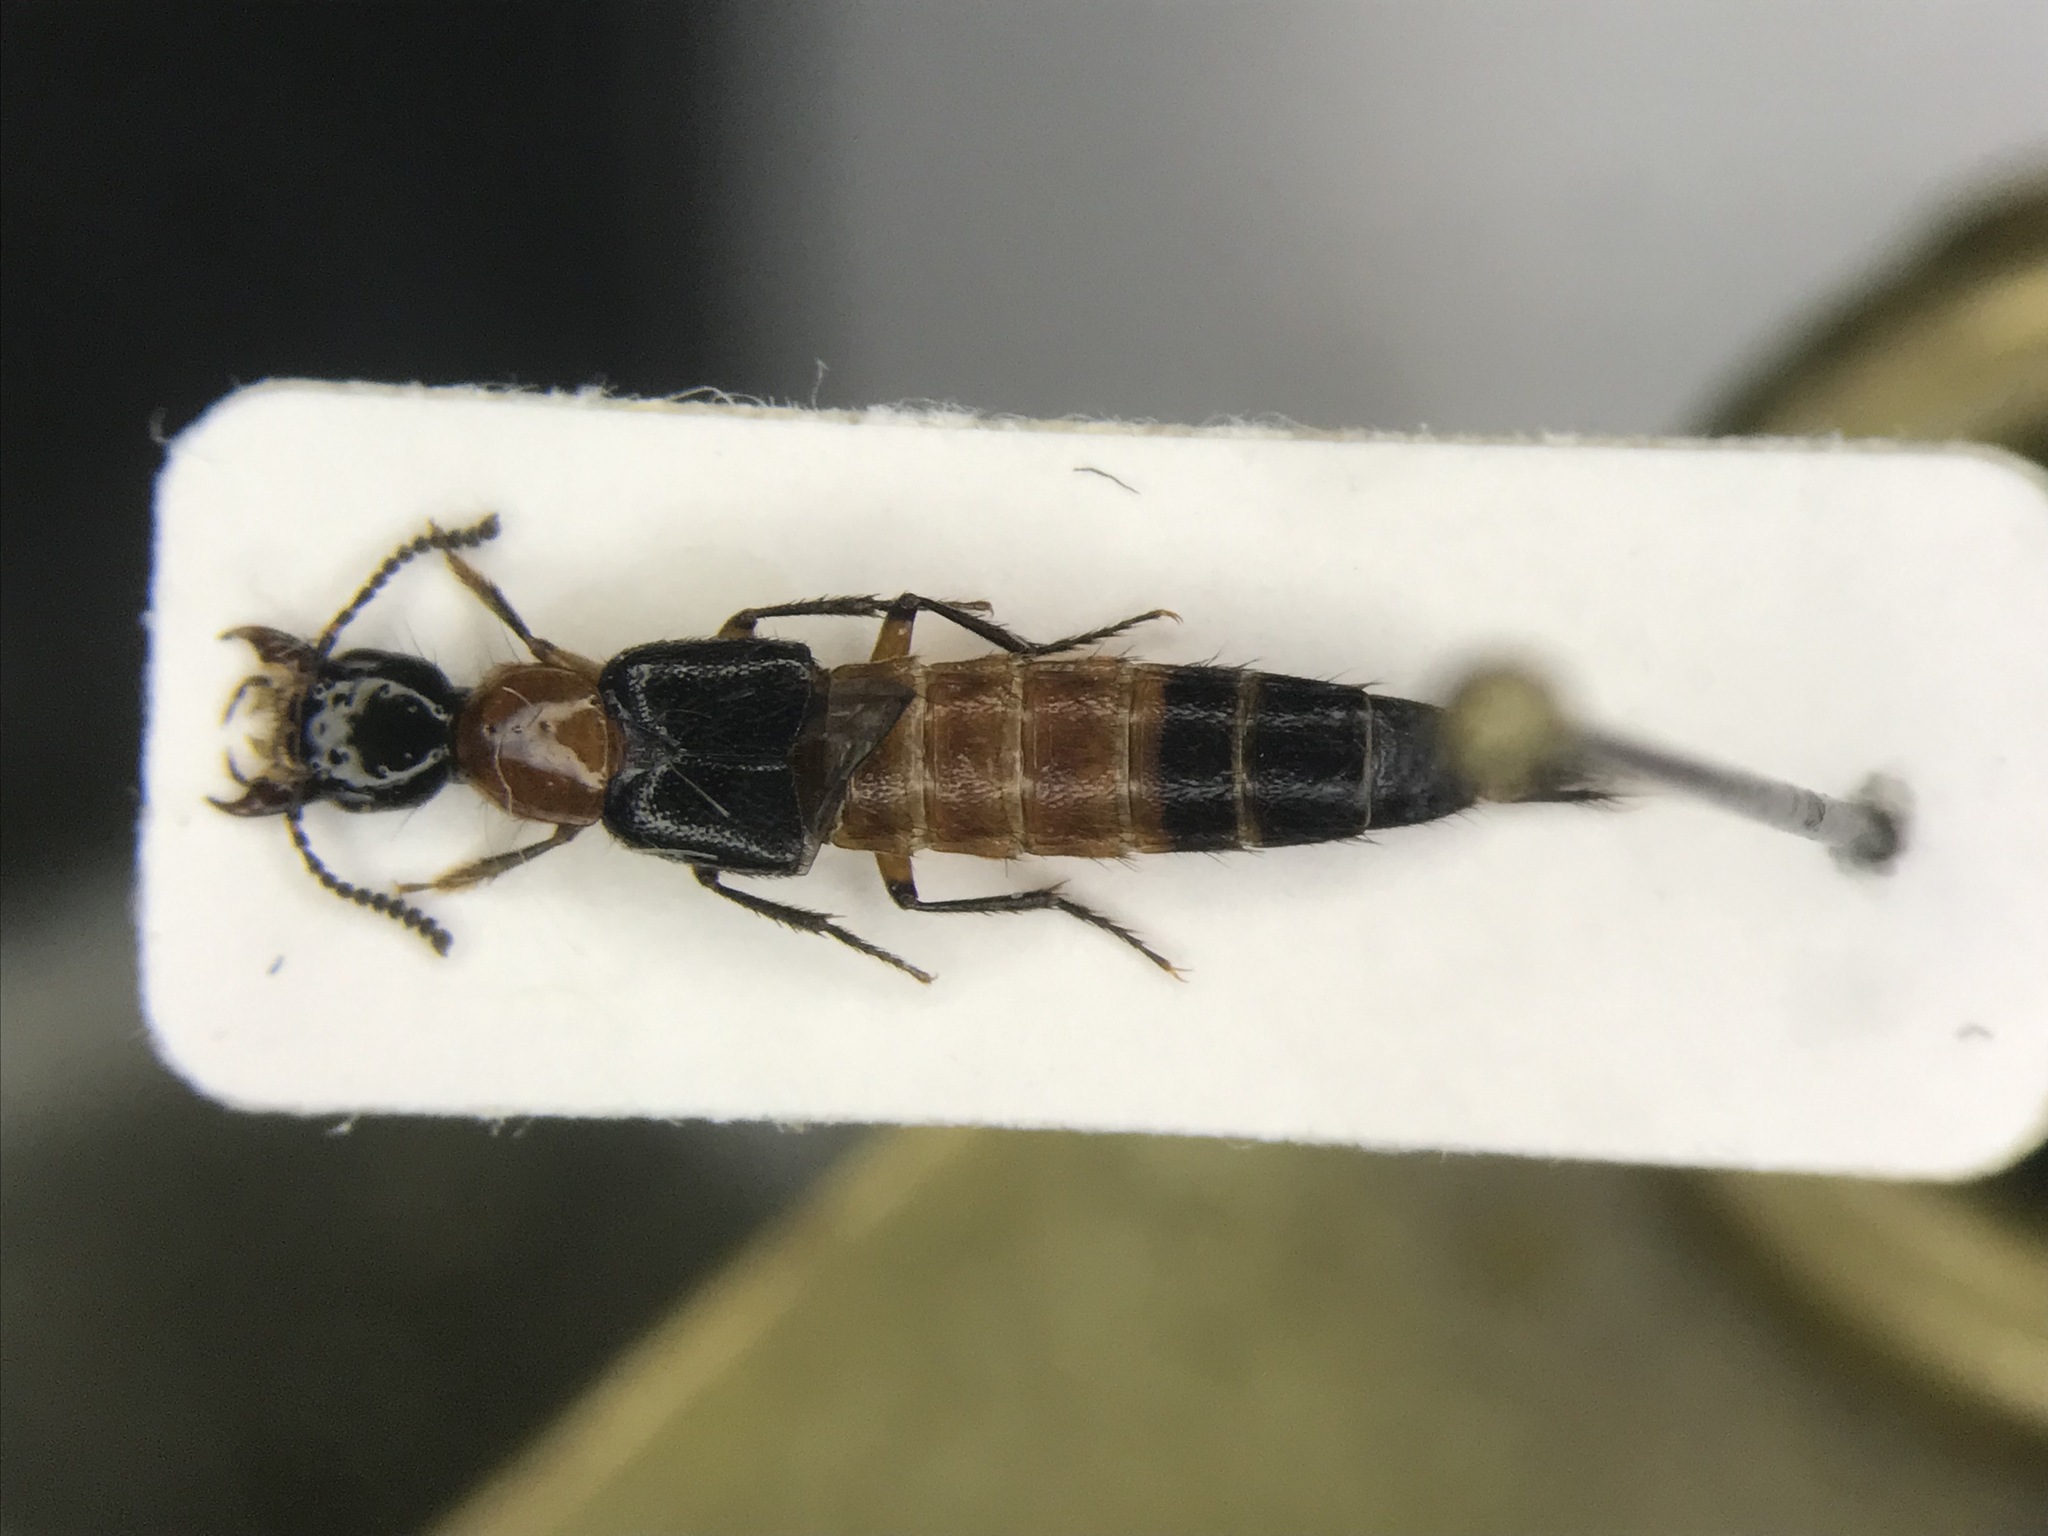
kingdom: Animalia
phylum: Arthropoda
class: Insecta
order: Coleoptera
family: Staphylinidae
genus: Laetulonthus
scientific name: Laetulonthus laetulus
